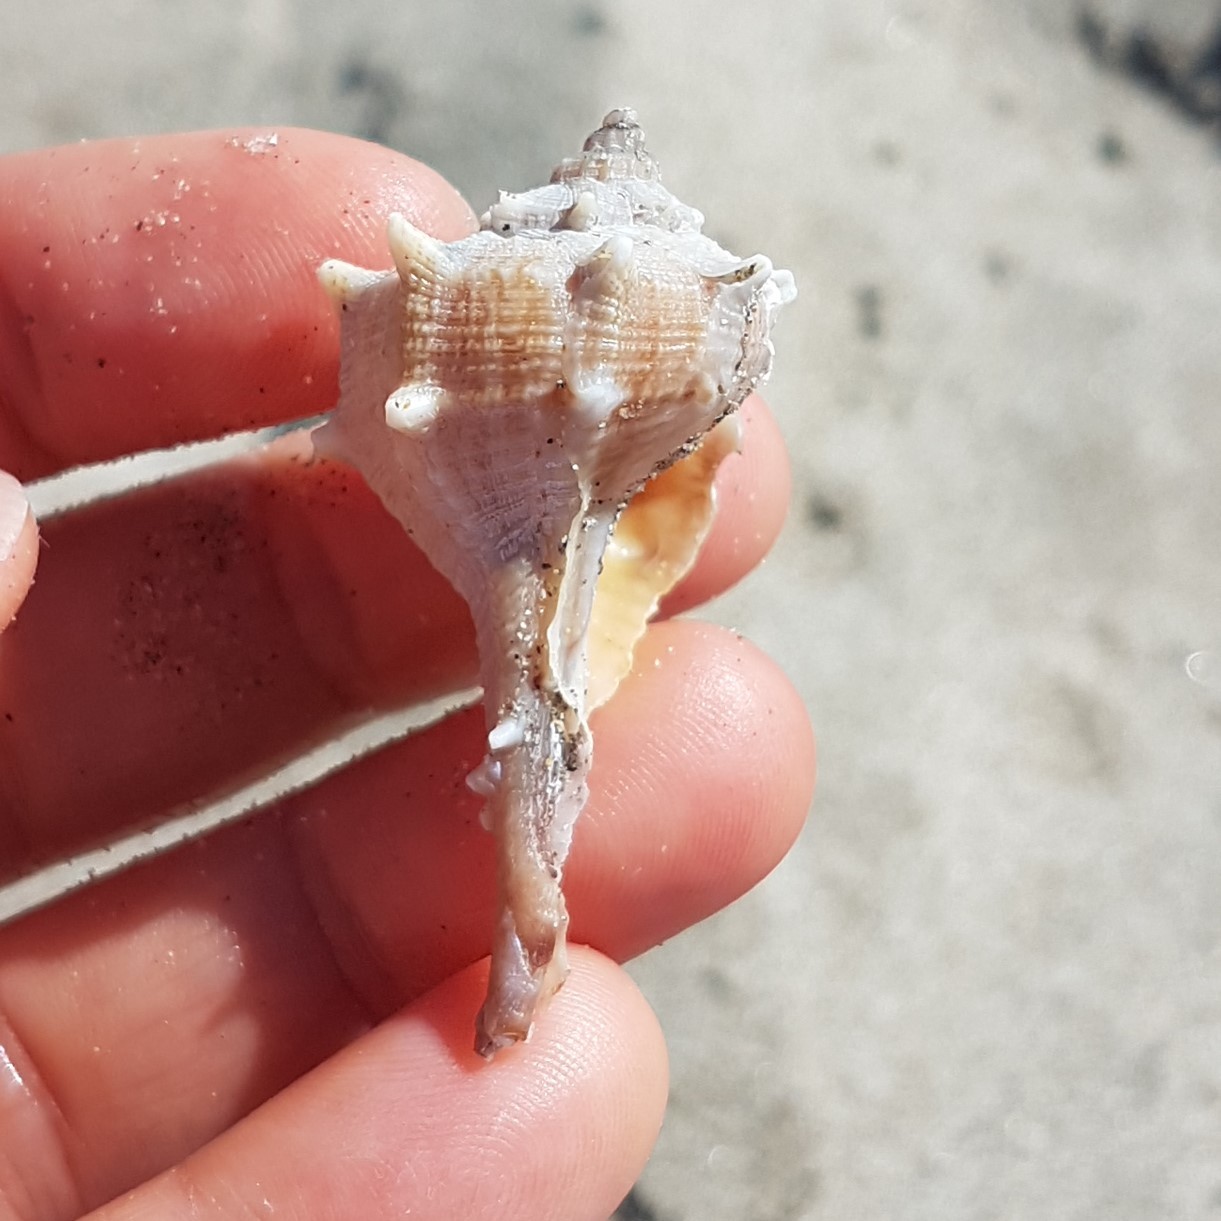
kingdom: Animalia
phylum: Mollusca
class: Gastropoda
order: Neogastropoda
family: Muricidae
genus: Bolinus
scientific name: Bolinus brandaris
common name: Dye murex
